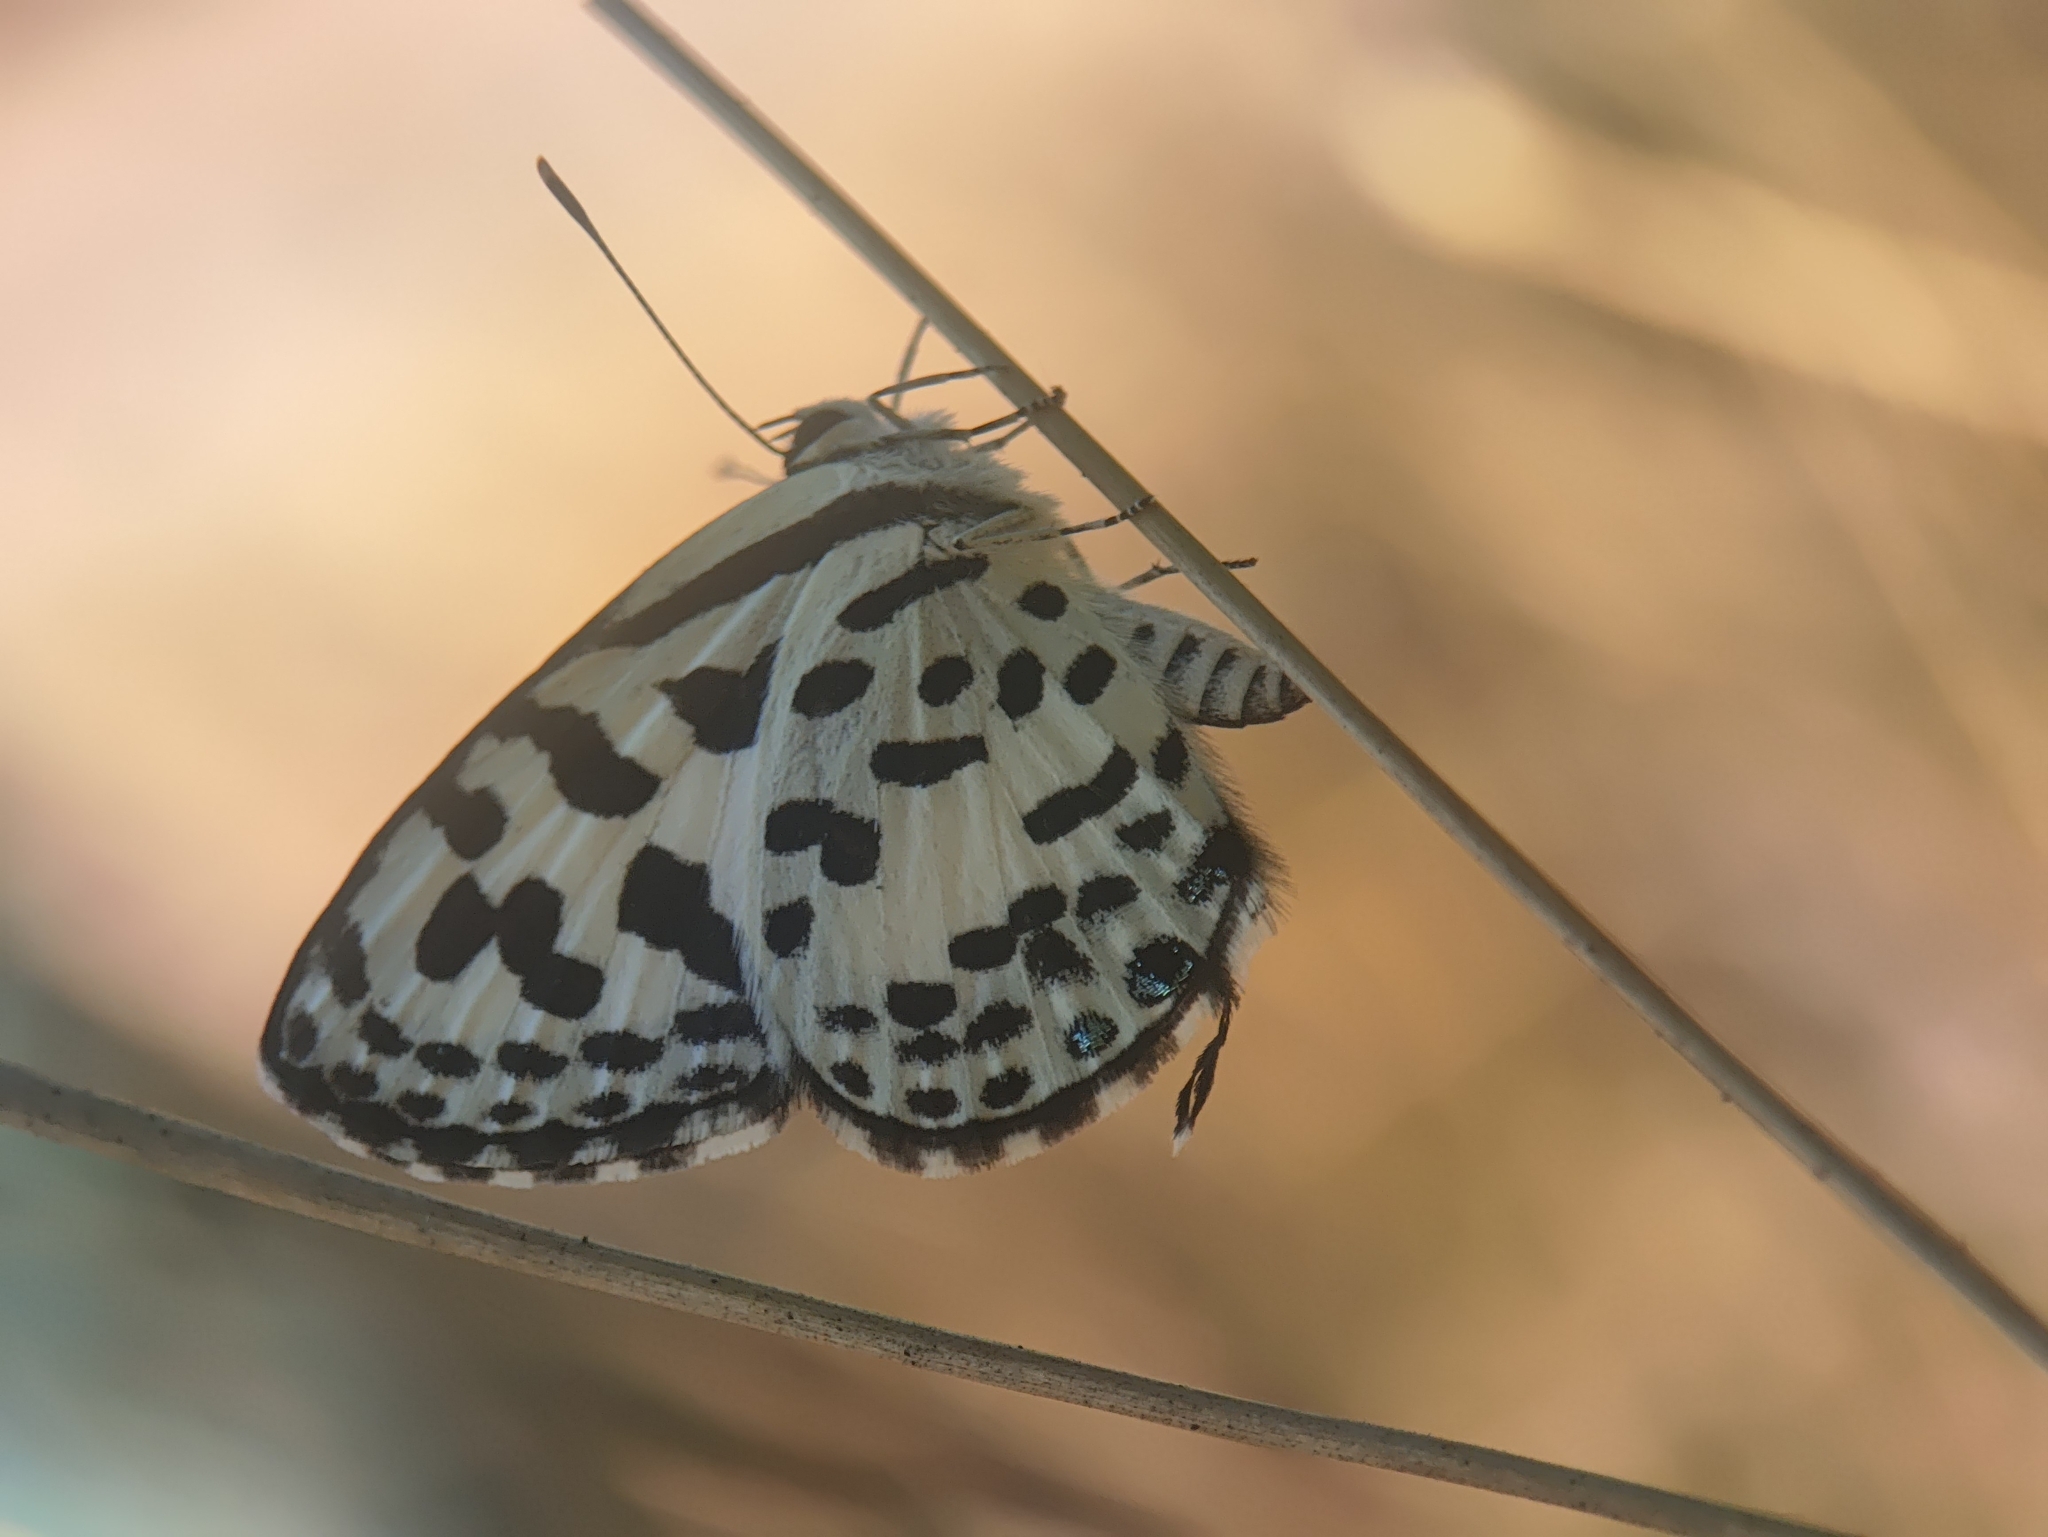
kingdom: Animalia
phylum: Arthropoda
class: Insecta
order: Lepidoptera
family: Lycaenidae
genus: Castalius
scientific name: Castalius rosimon
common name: Common pierrot
